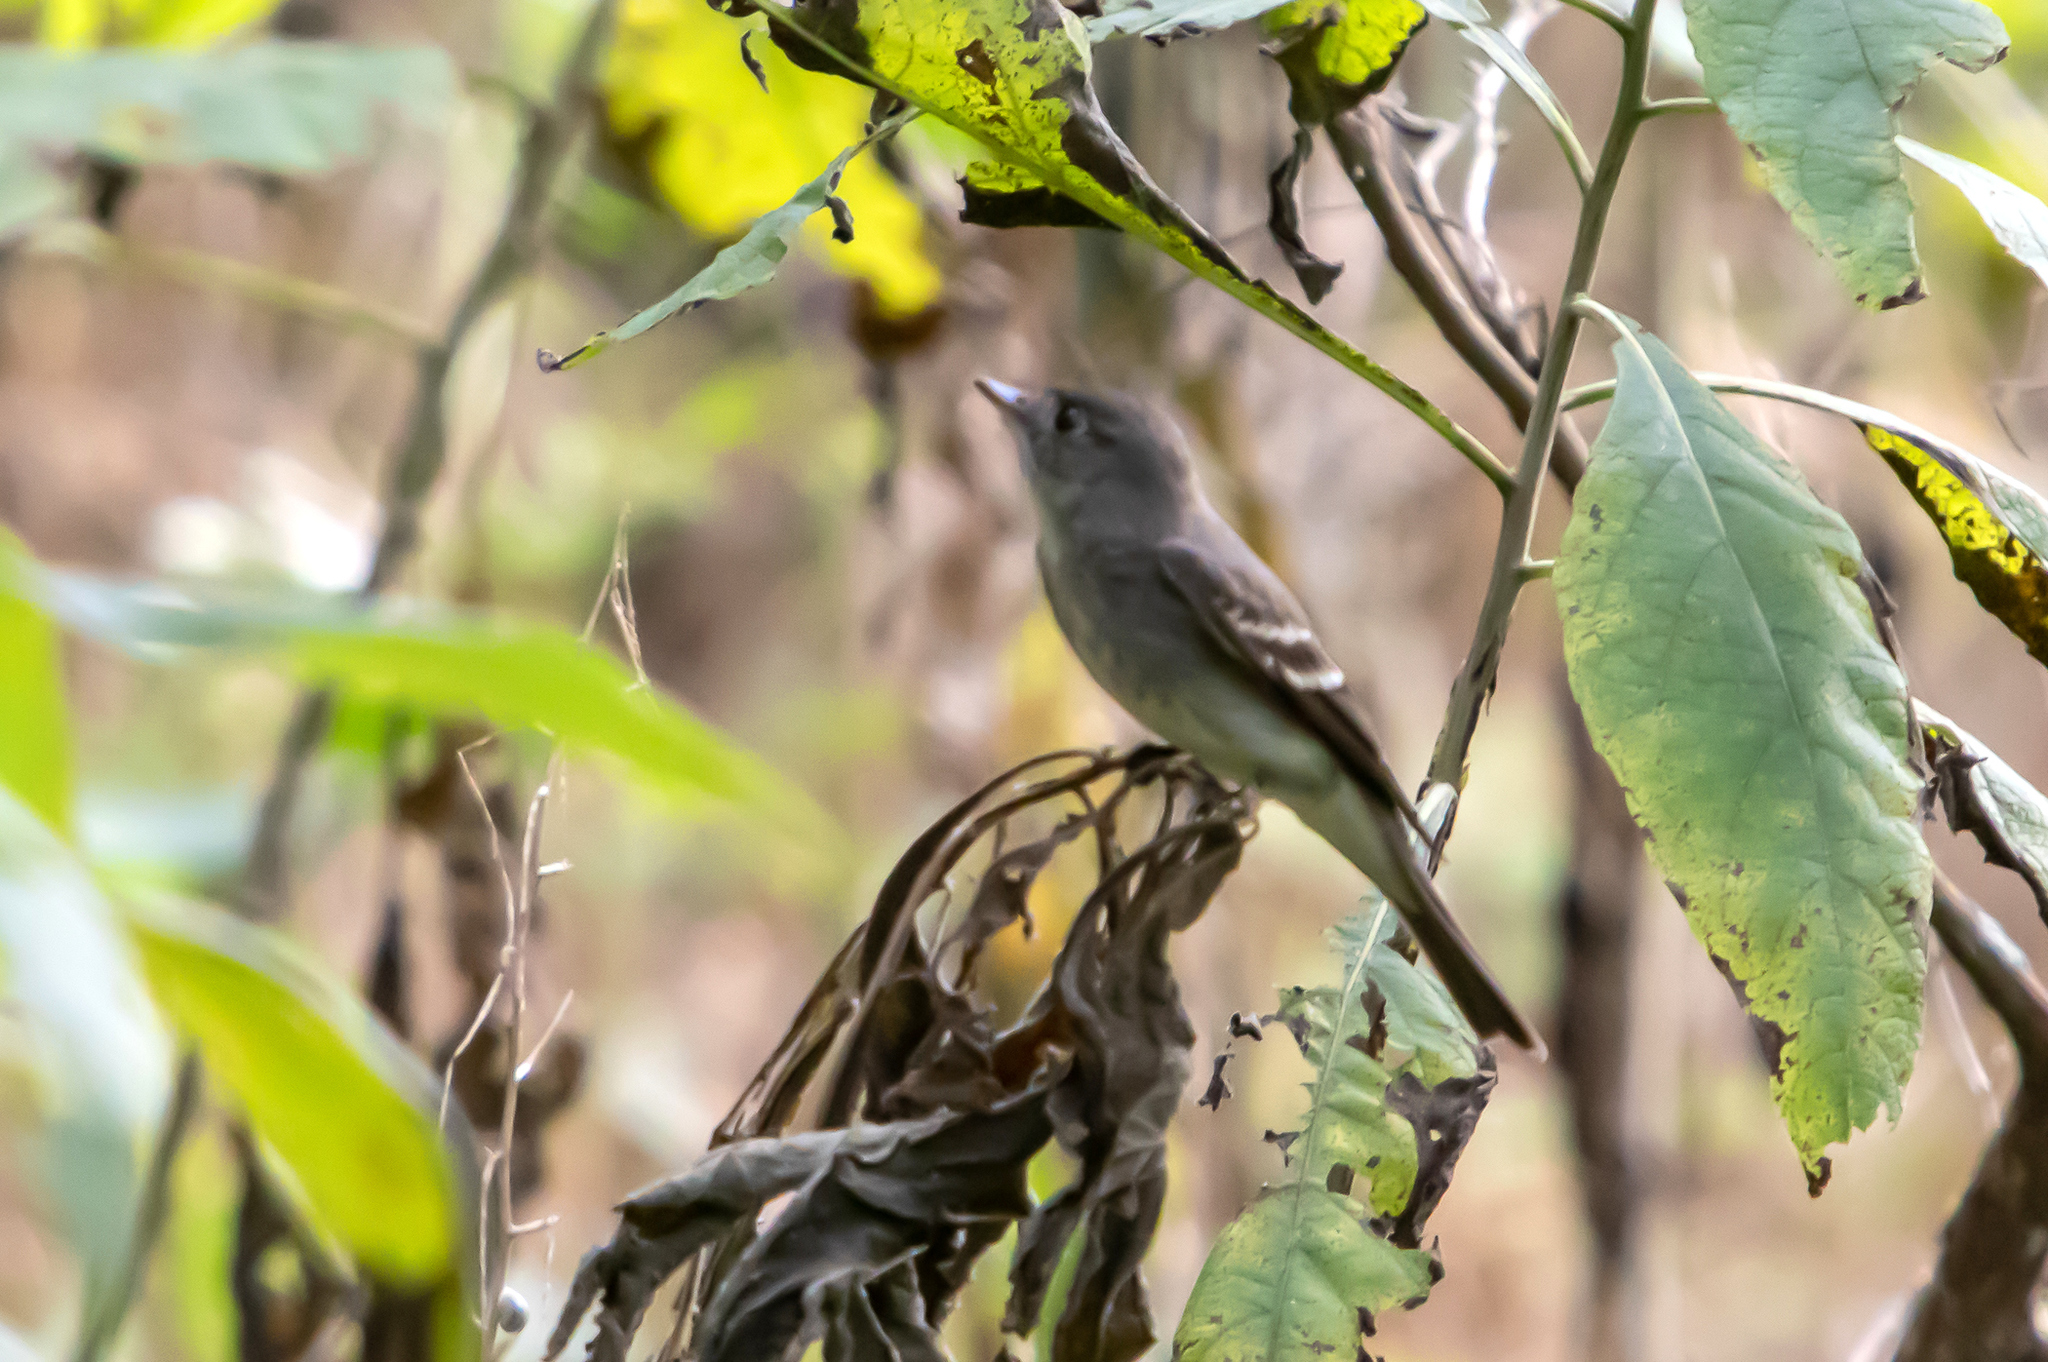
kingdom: Animalia
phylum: Chordata
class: Aves
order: Passeriformes
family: Tyrannidae
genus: Contopus
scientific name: Contopus virens
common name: Eastern wood-pewee
